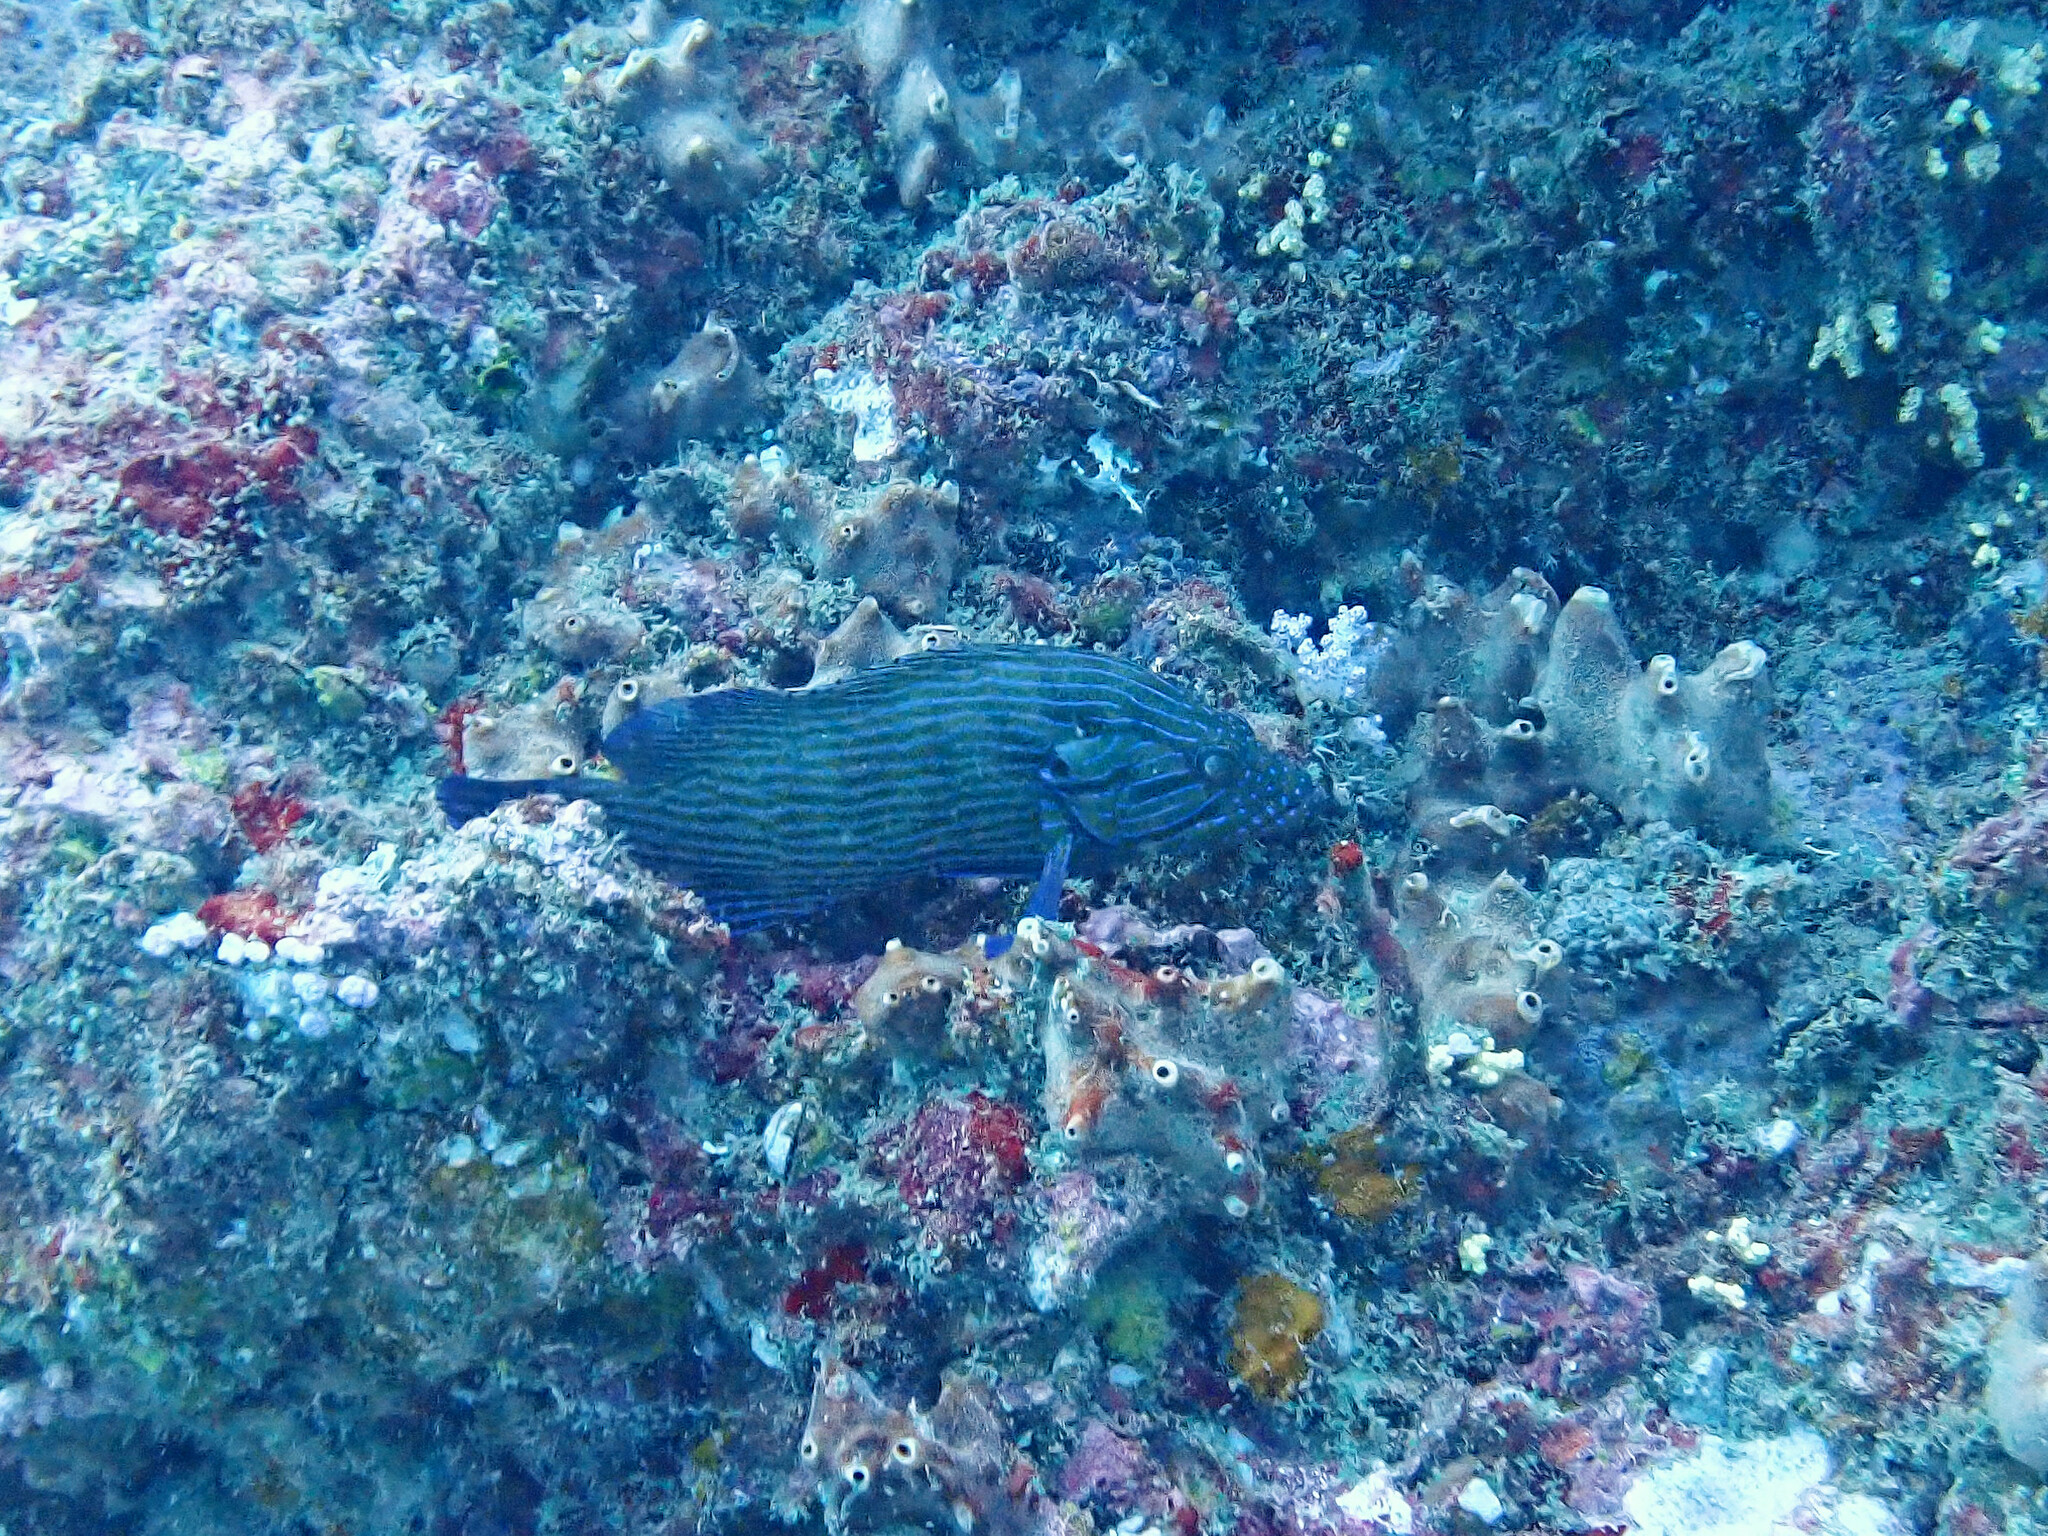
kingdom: Animalia
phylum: Chordata
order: Perciformes
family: Serranidae
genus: Cephalopholis
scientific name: Cephalopholis formosa
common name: Bluelined hind
